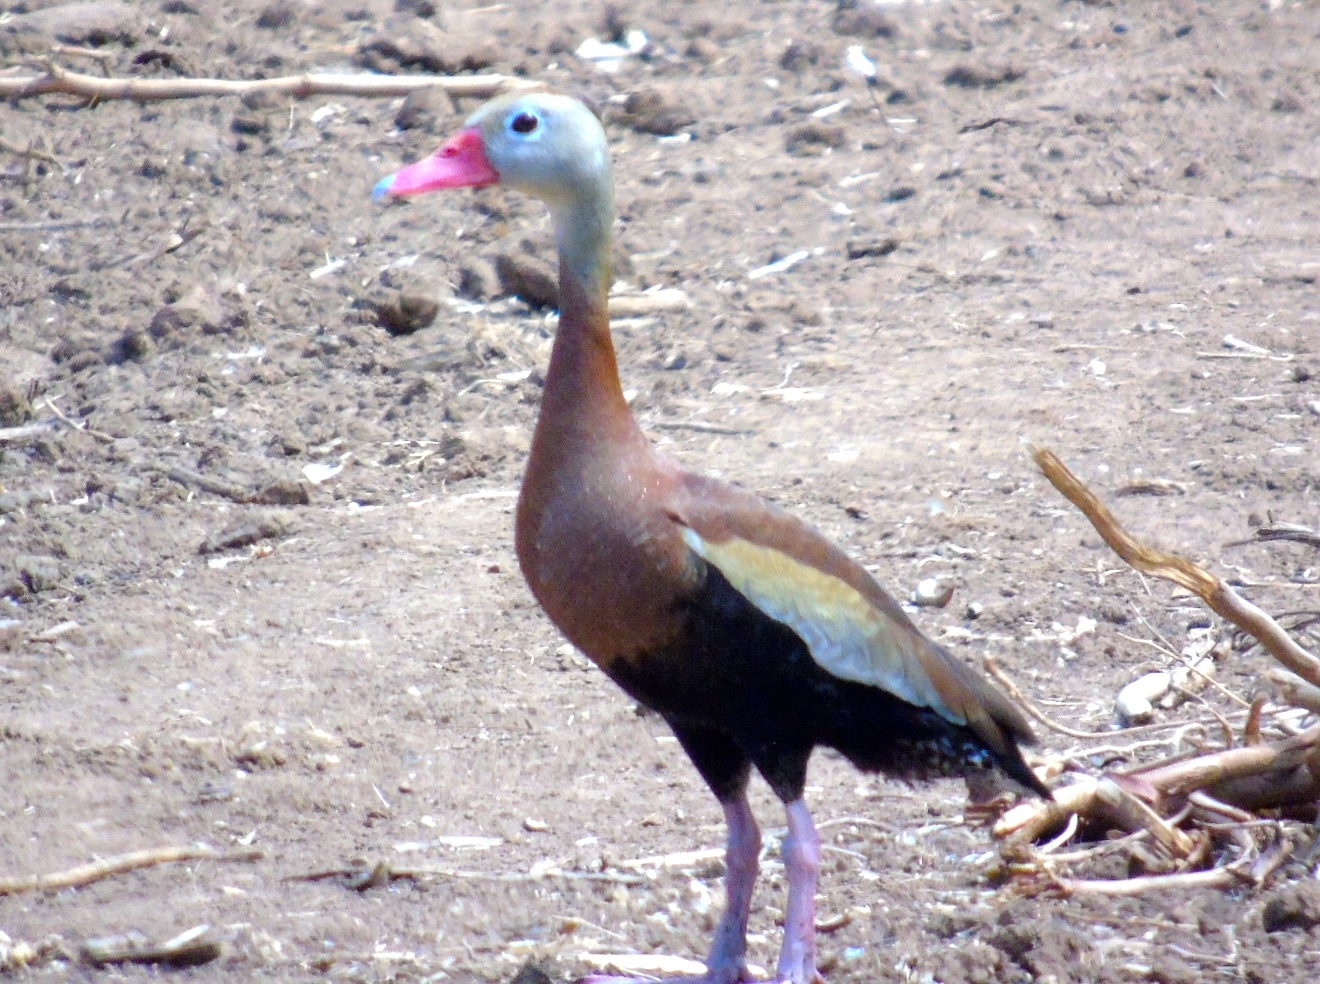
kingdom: Animalia
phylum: Chordata
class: Aves
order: Anseriformes
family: Anatidae
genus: Dendrocygna
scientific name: Dendrocygna autumnalis
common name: Black-bellied whistling duck
